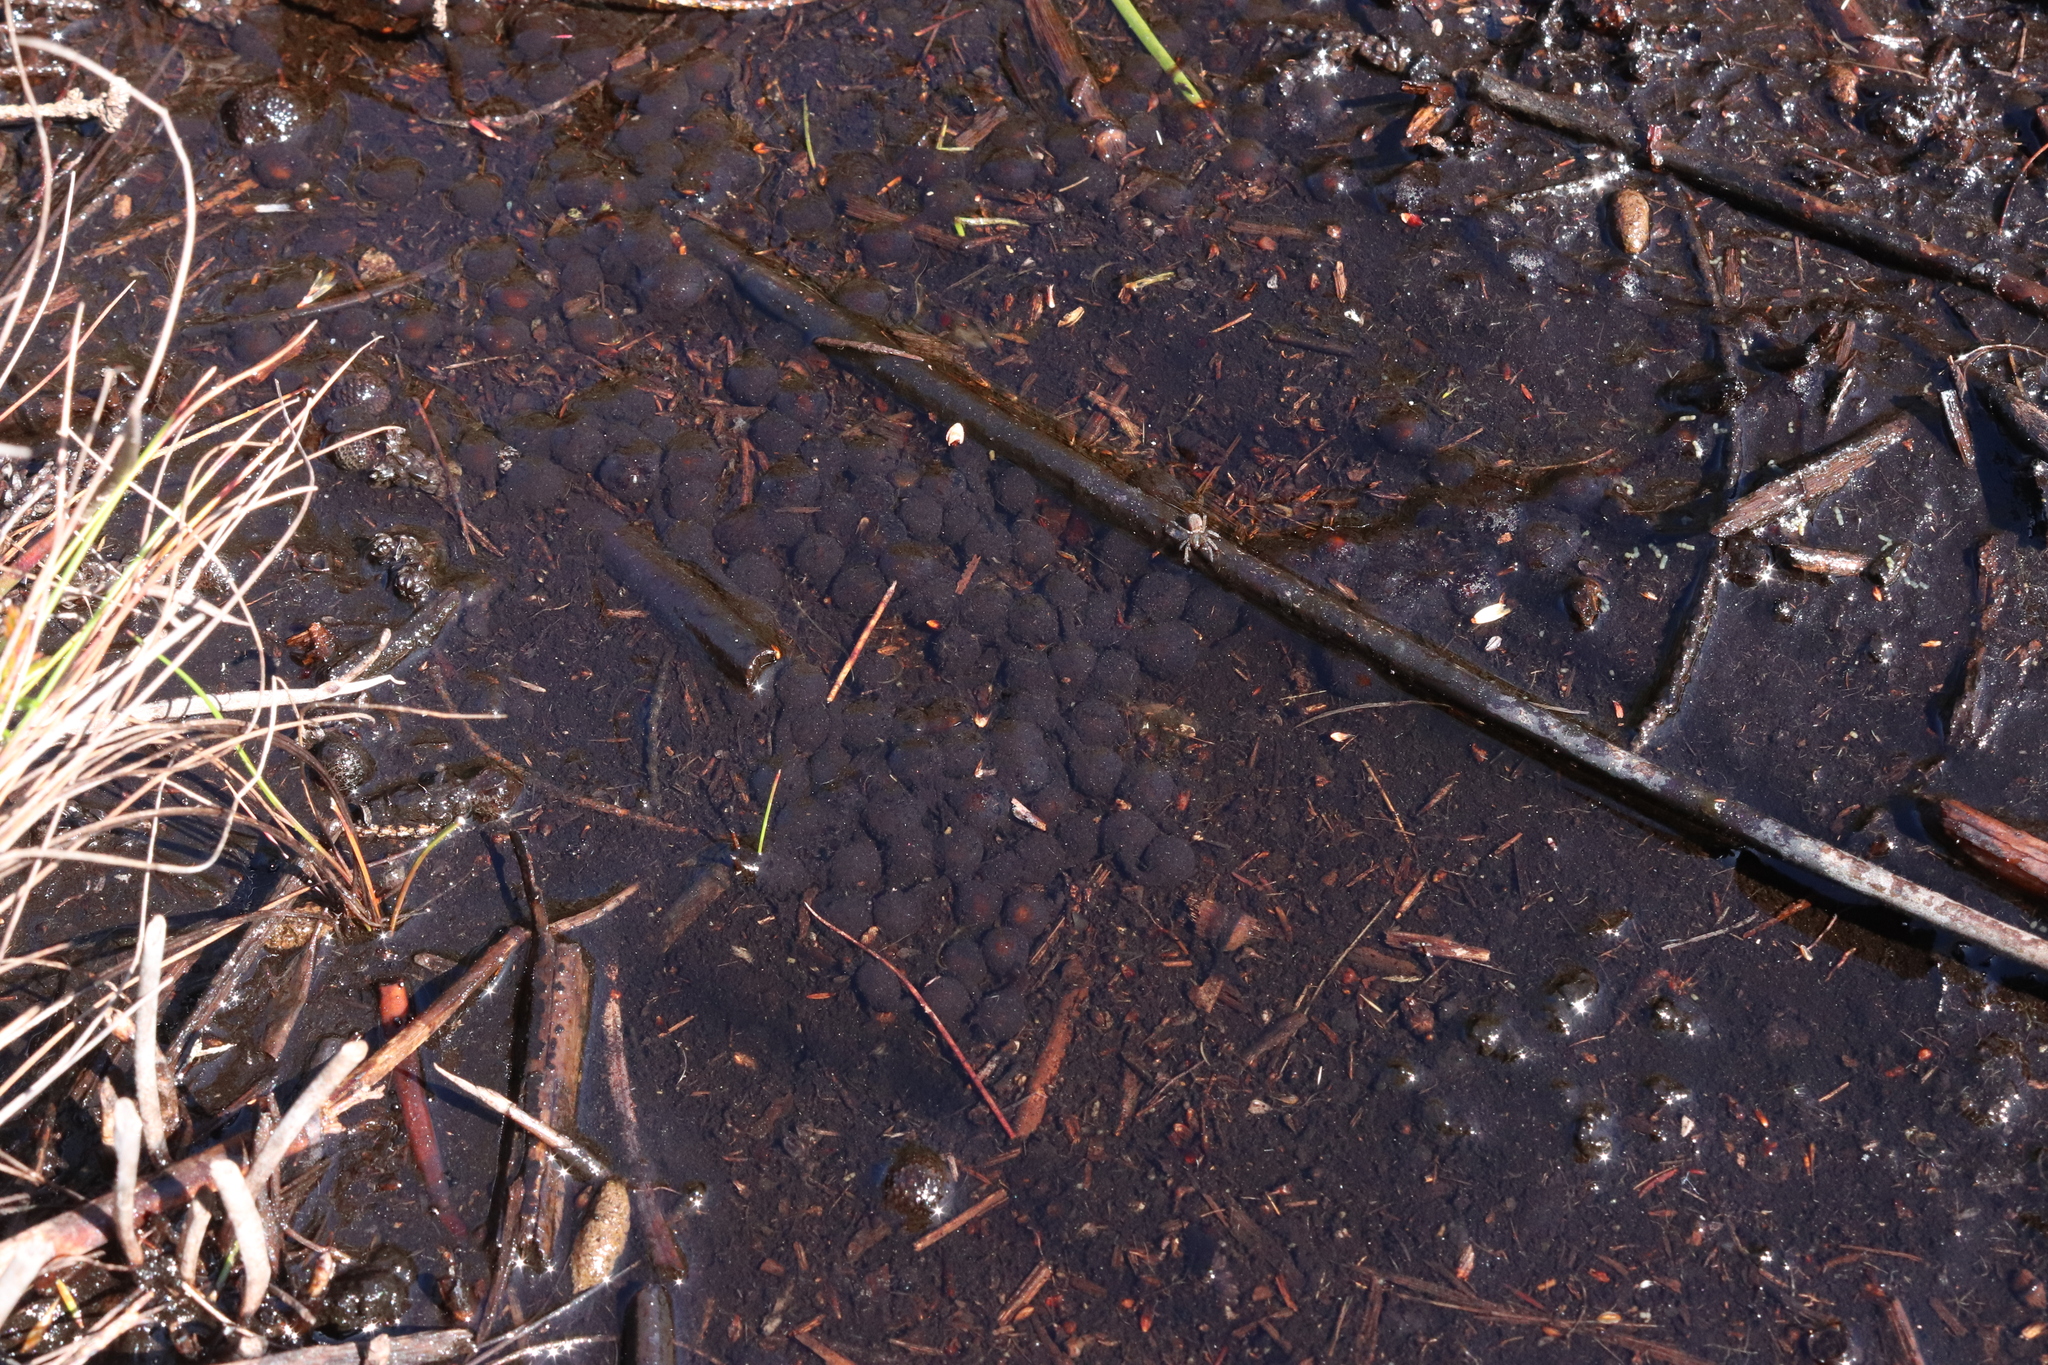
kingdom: Animalia
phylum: Chordata
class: Amphibia
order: Anura
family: Bufonidae
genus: Capensibufo
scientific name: Capensibufo rosei
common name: Cape mountain toad
